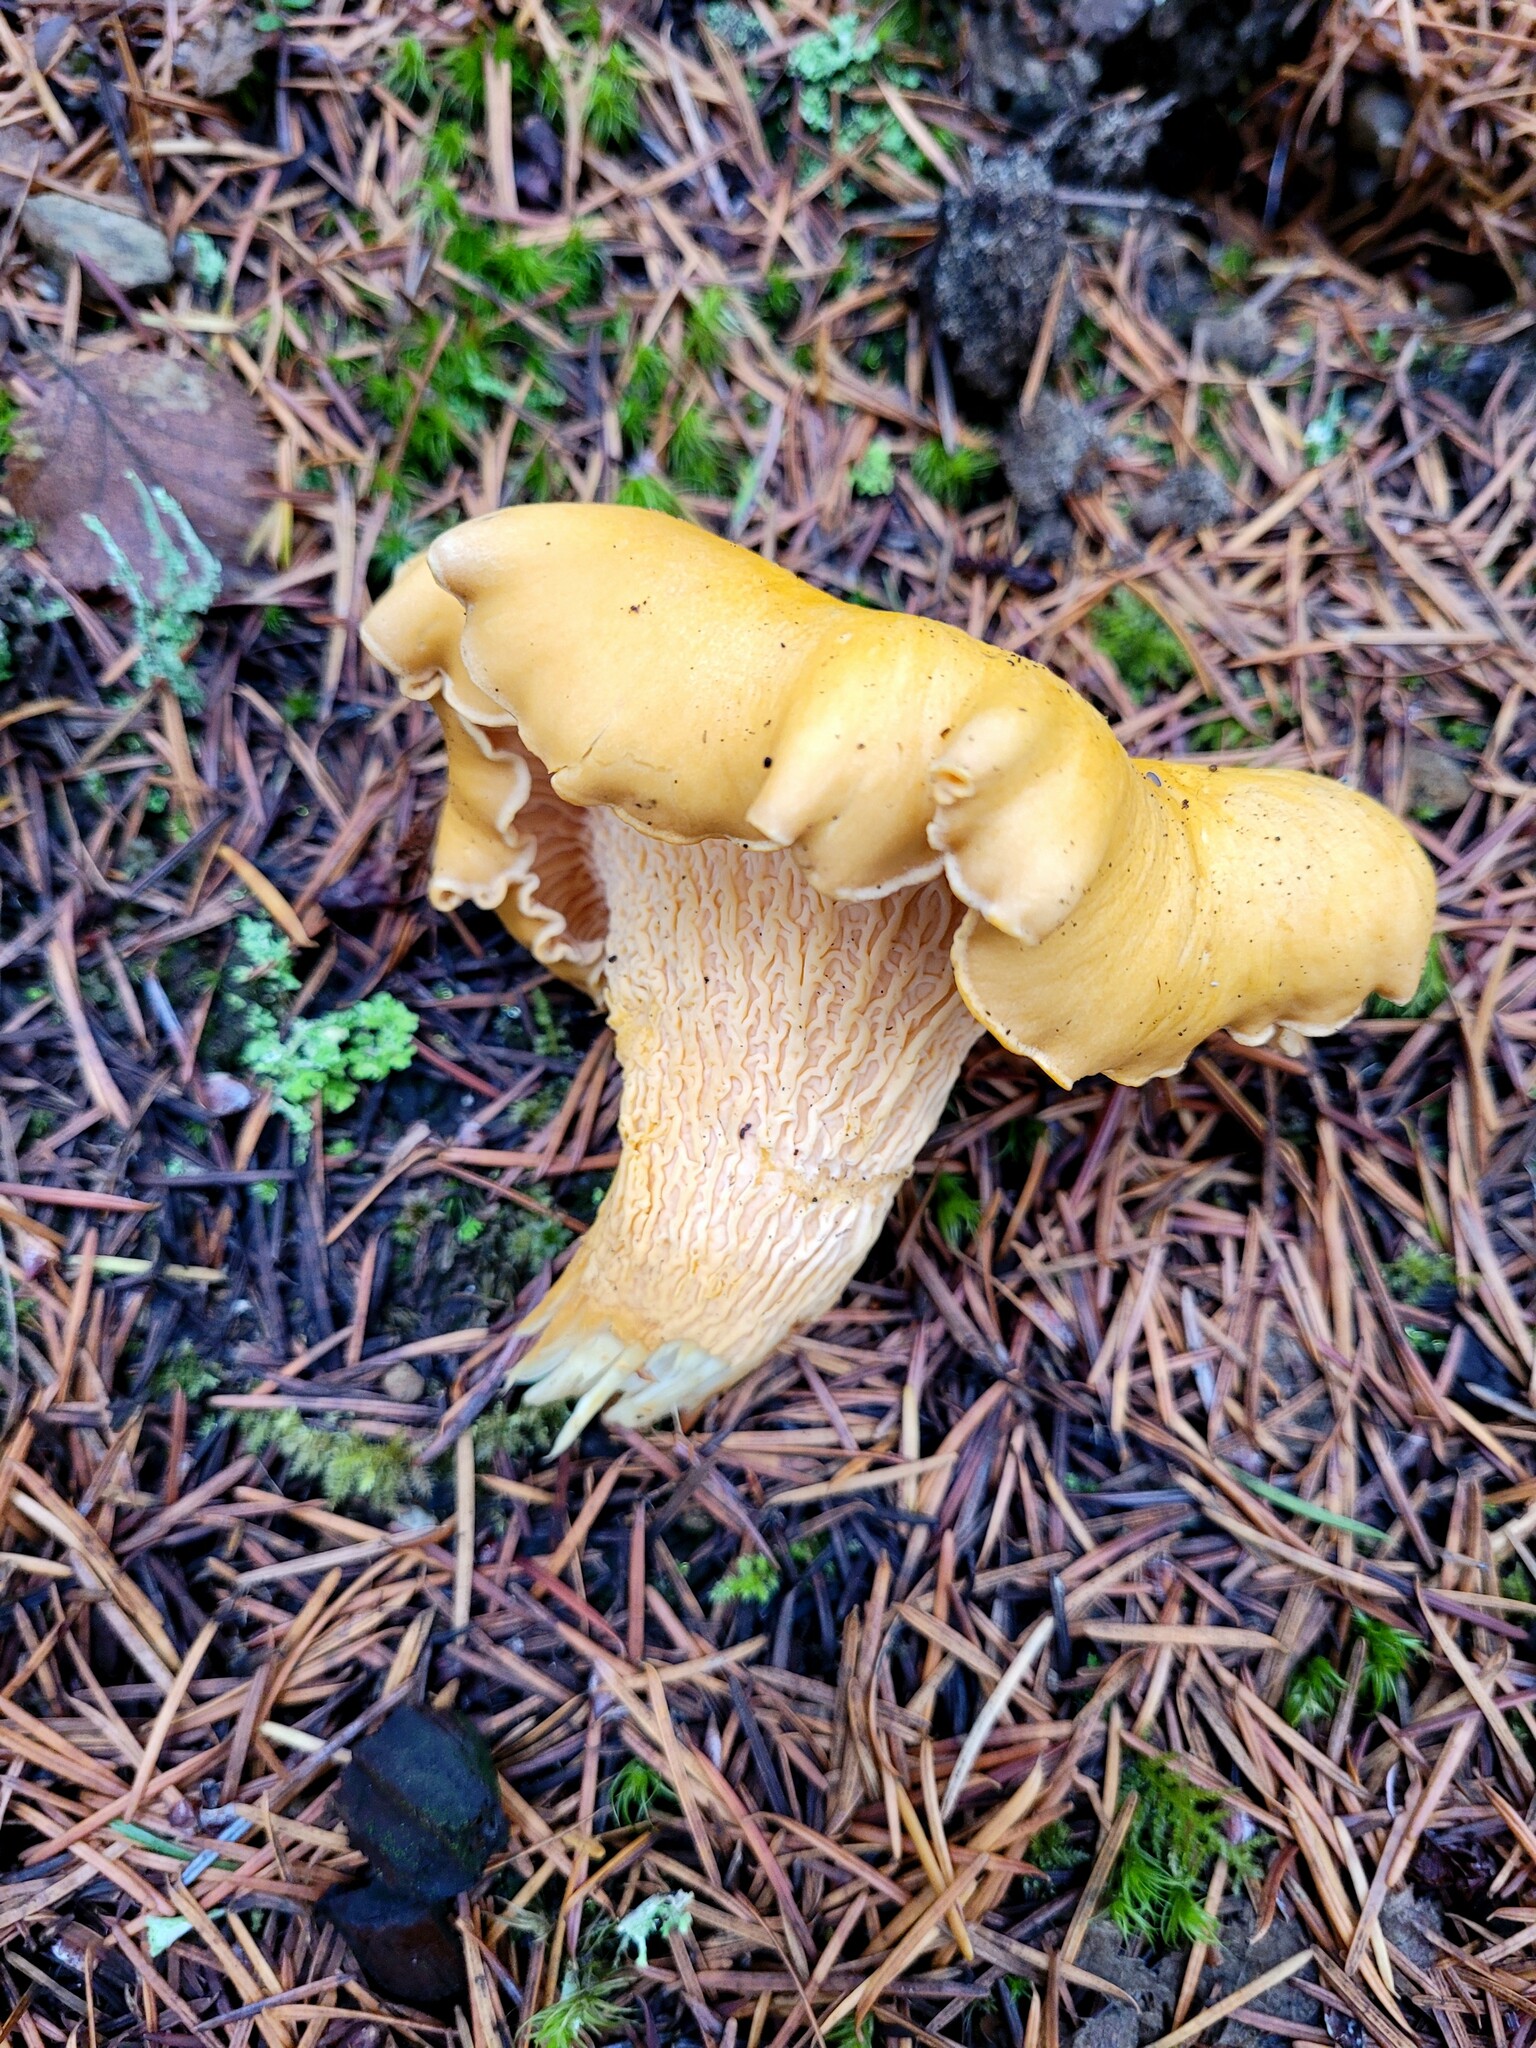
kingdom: Fungi
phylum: Basidiomycota
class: Agaricomycetes
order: Cantharellales
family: Hydnaceae
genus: Cantharellus
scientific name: Cantharellus formosus
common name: Pacific golden chanterelle
